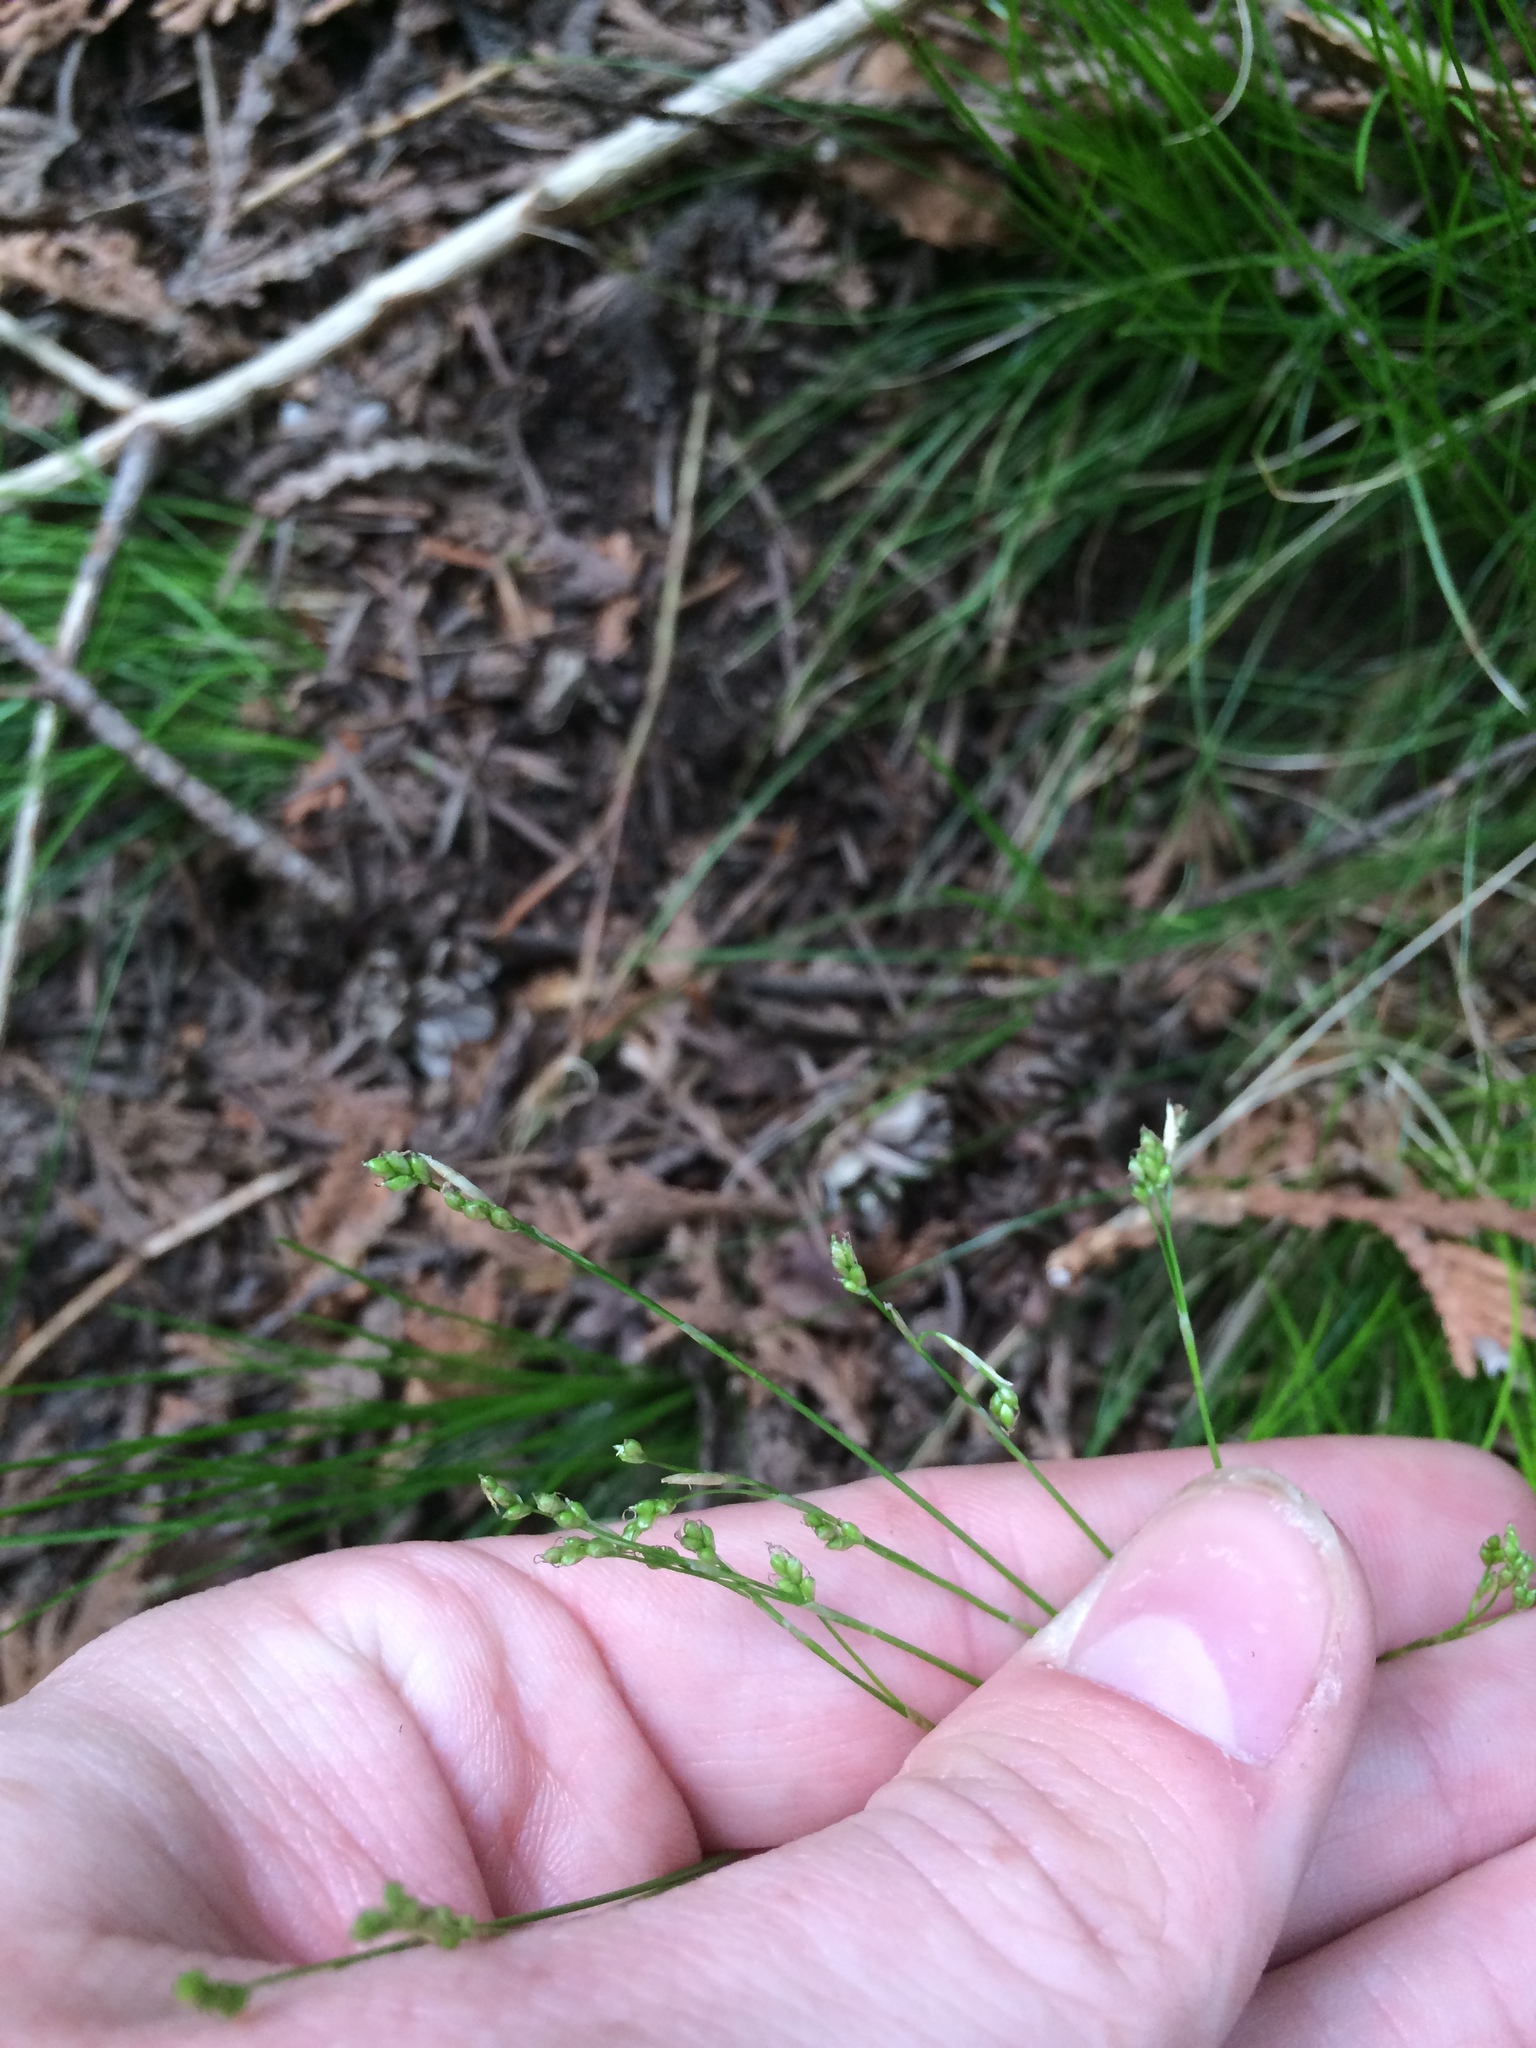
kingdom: Plantae
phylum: Tracheophyta
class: Liliopsida
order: Poales
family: Cyperaceae
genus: Carex
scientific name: Carex eburnea
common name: Bristle-leaved sedge
